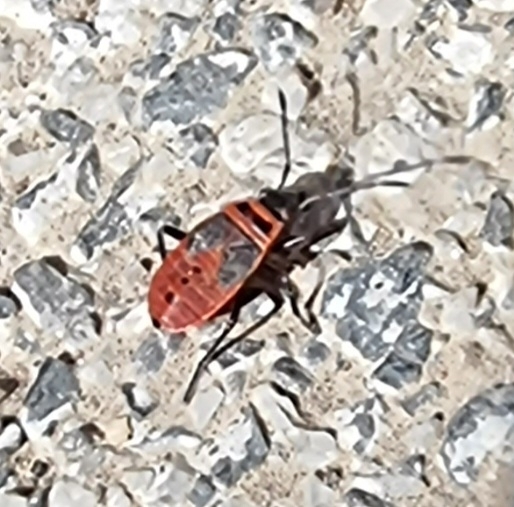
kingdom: Animalia
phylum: Arthropoda
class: Insecta
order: Hemiptera
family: Pyrrhocoridae
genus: Pyrrhocoris
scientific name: Pyrrhocoris apterus
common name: Firebug
